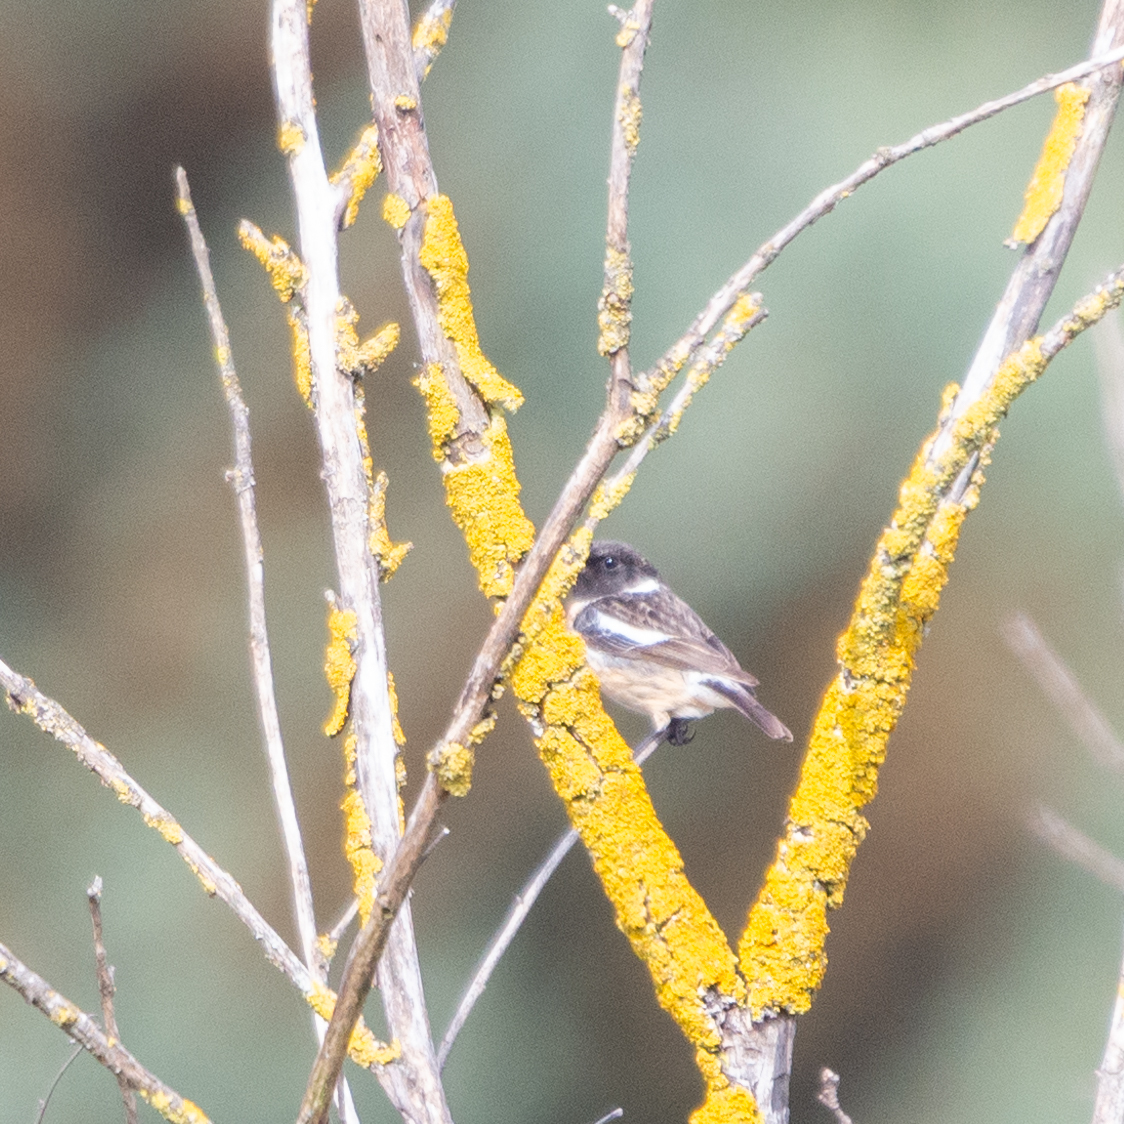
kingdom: Animalia
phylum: Chordata
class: Aves
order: Passeriformes
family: Muscicapidae
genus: Saxicola
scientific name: Saxicola rubicola
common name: European stonechat
